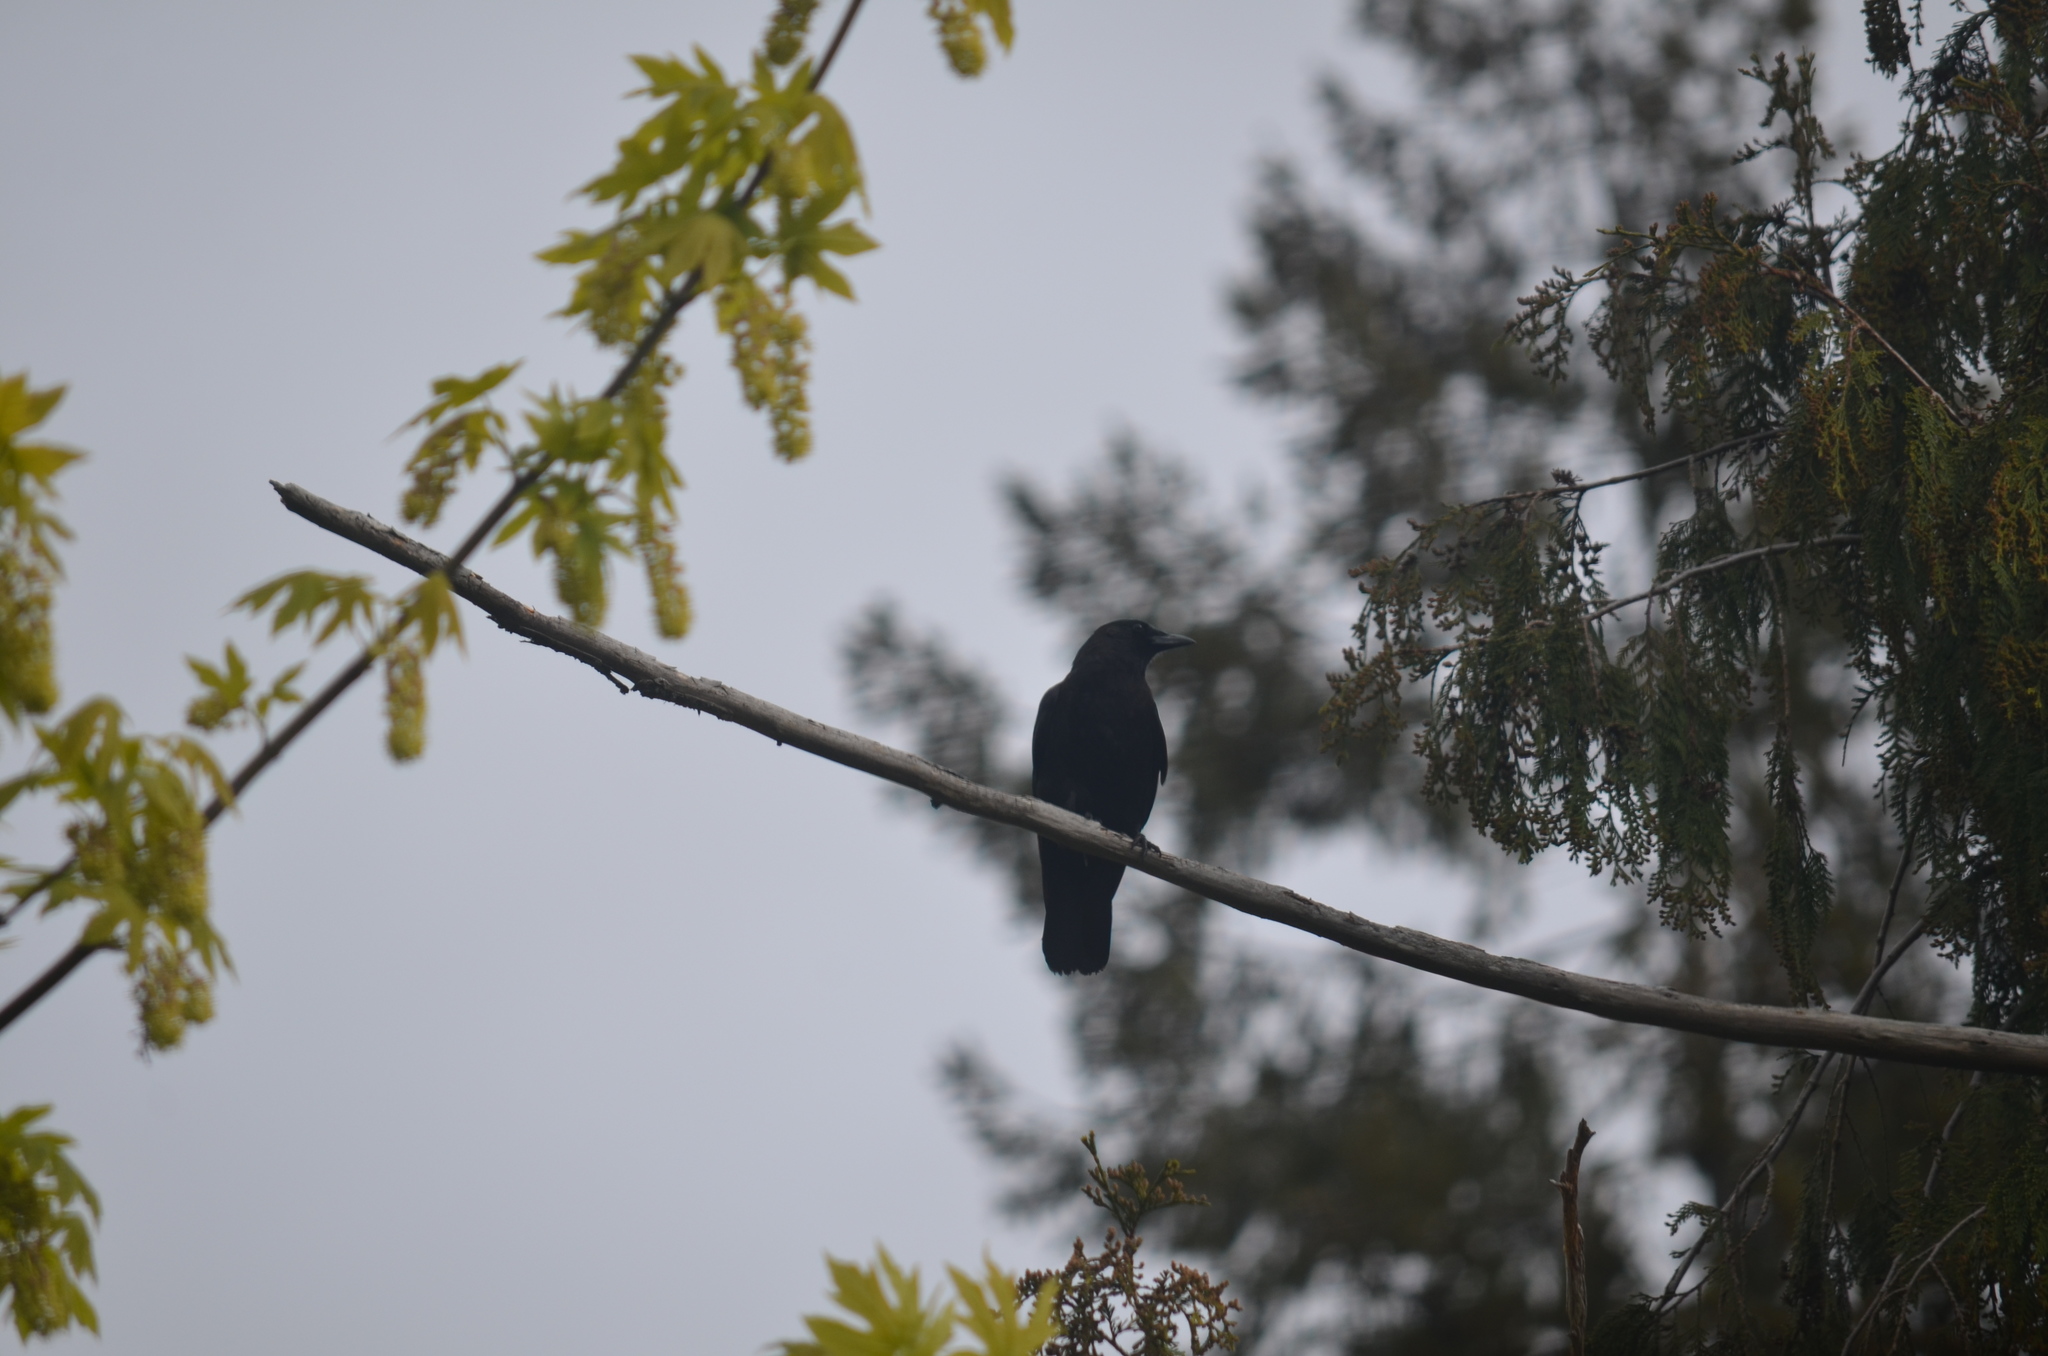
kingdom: Animalia
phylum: Chordata
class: Aves
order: Passeriformes
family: Corvidae
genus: Corvus
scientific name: Corvus brachyrhynchos
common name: American crow
